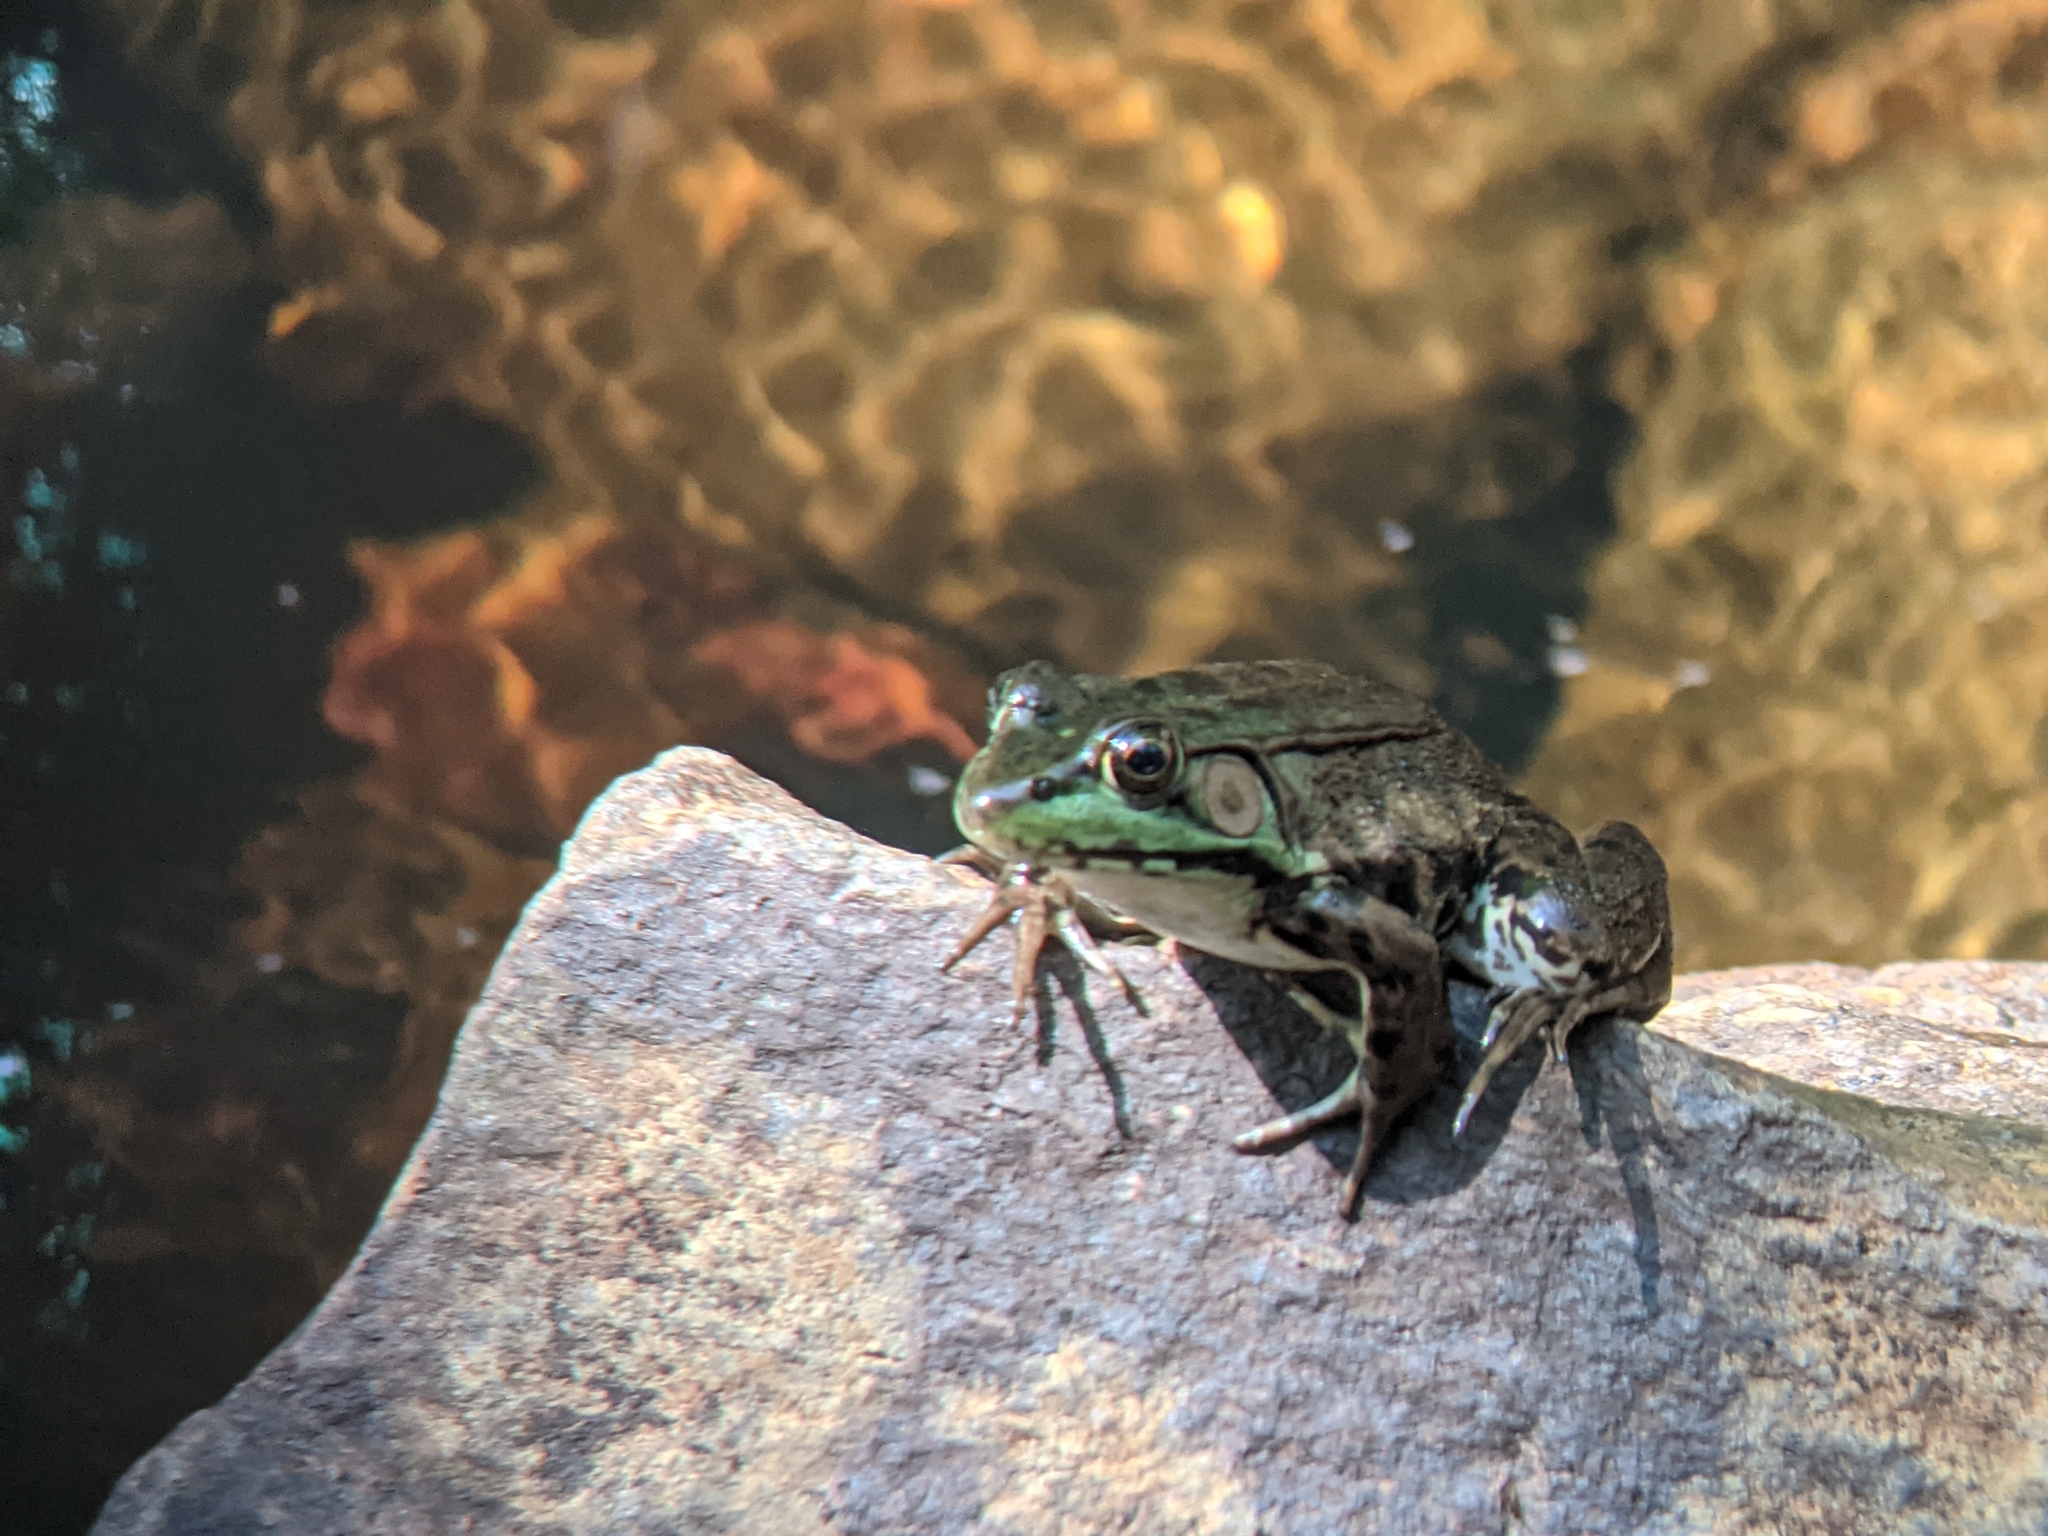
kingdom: Animalia
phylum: Chordata
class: Amphibia
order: Anura
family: Ranidae
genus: Lithobates
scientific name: Lithobates clamitans
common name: Green frog
